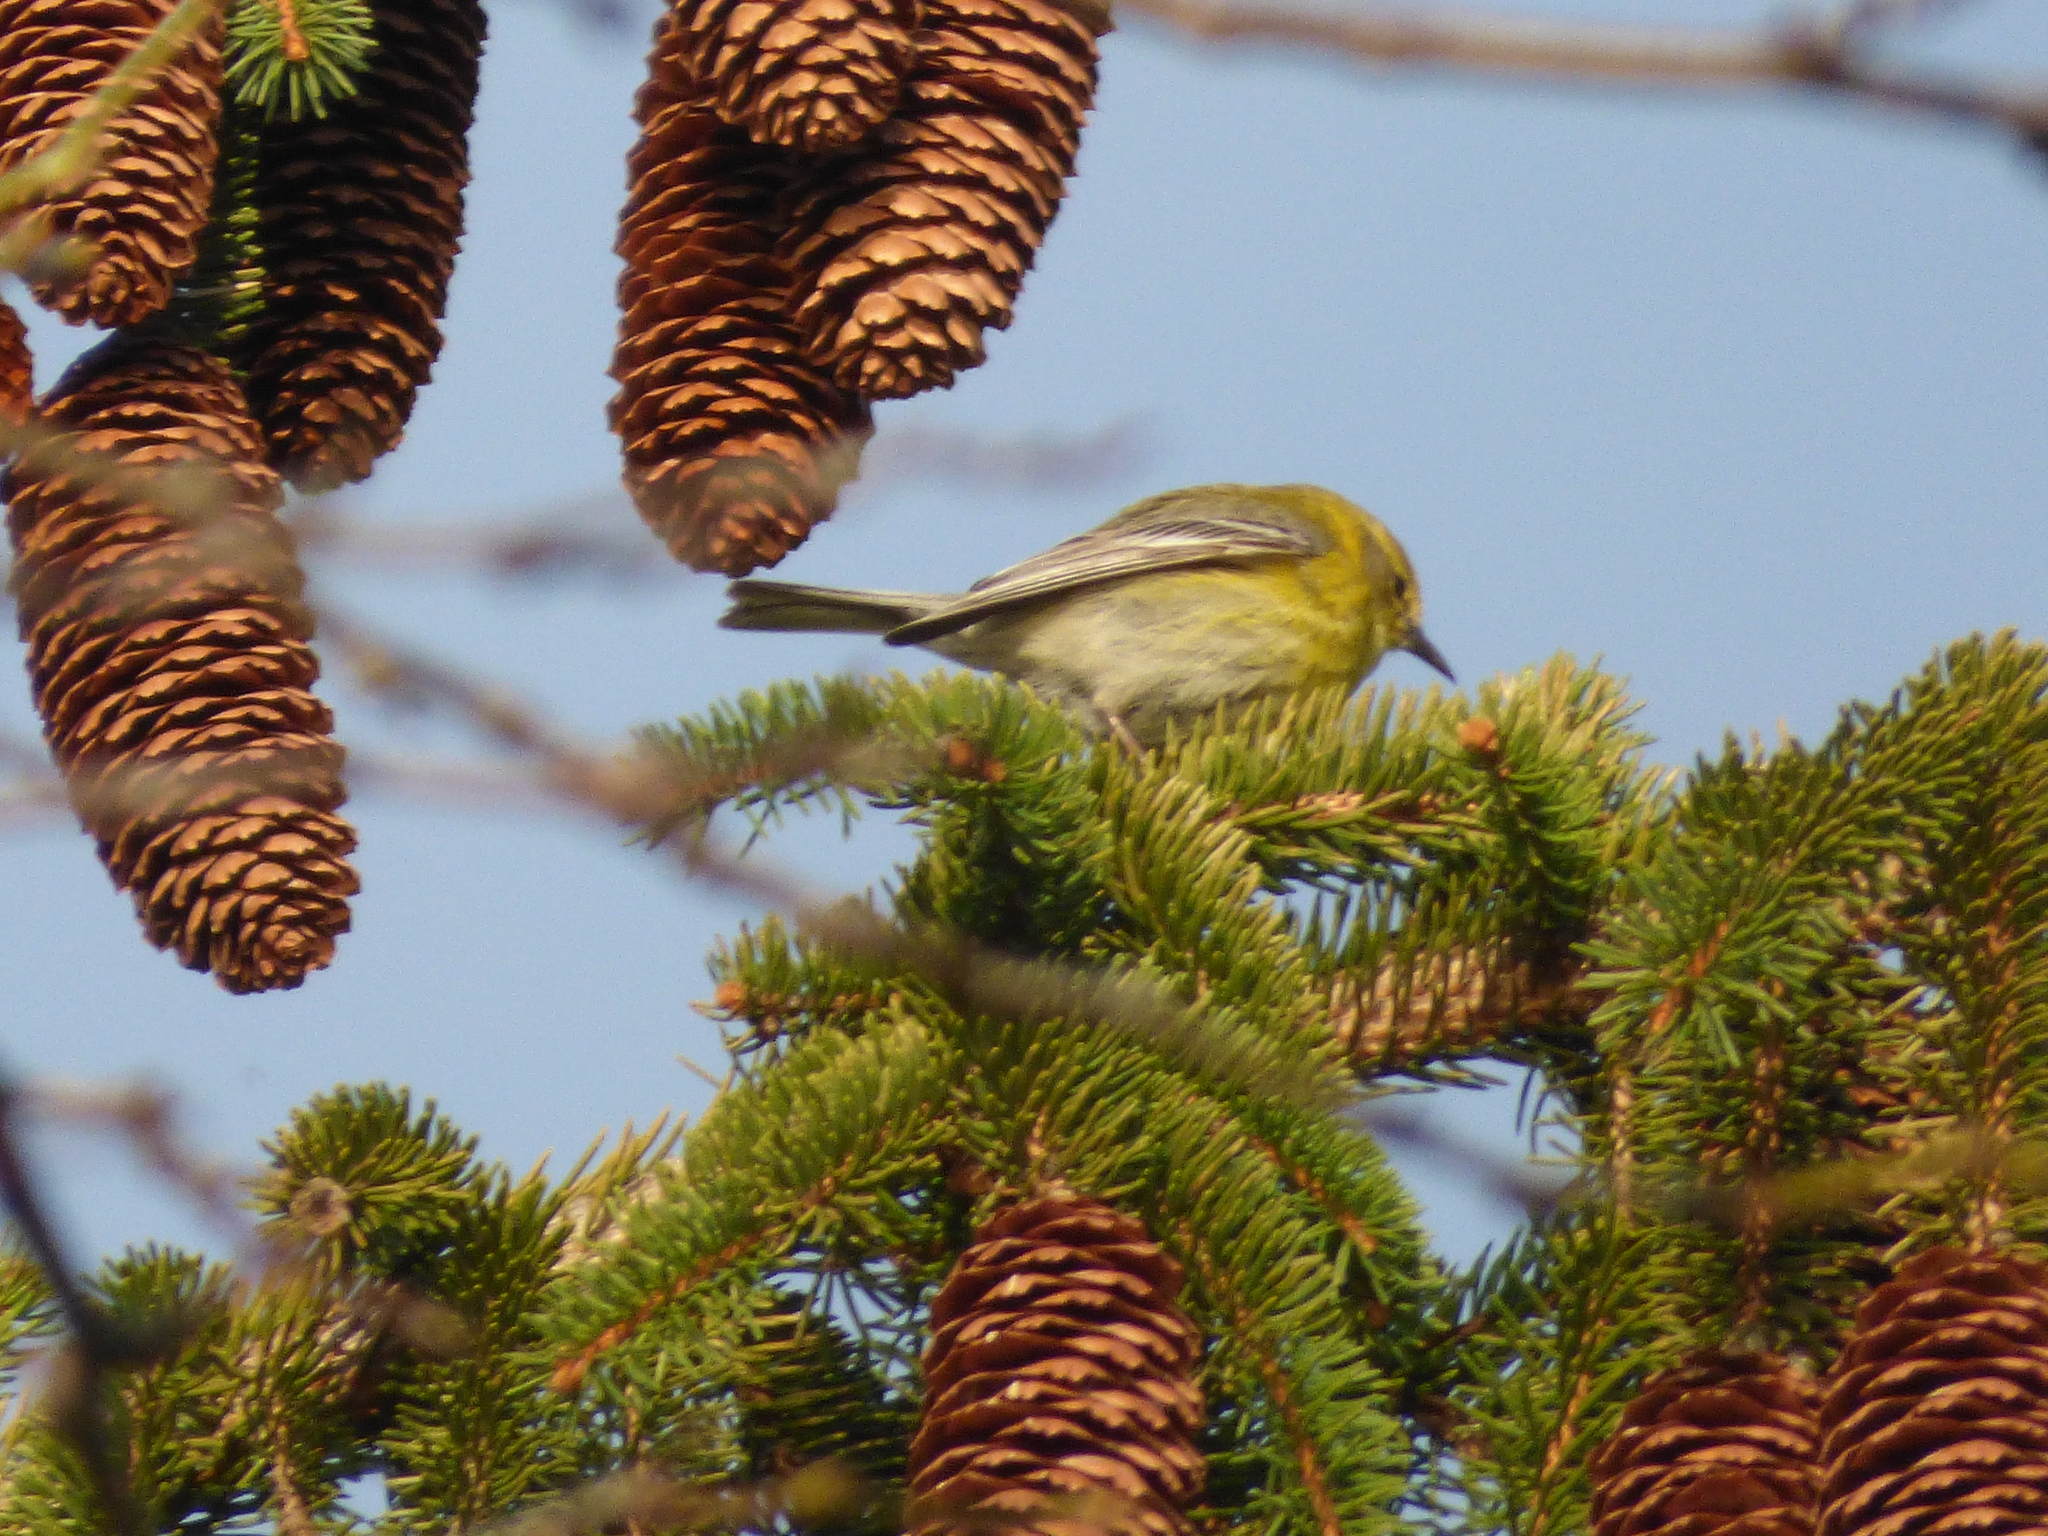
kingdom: Animalia
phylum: Chordata
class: Aves
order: Passeriformes
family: Parulidae
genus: Setophaga
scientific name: Setophaga pinus
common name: Pine warbler
